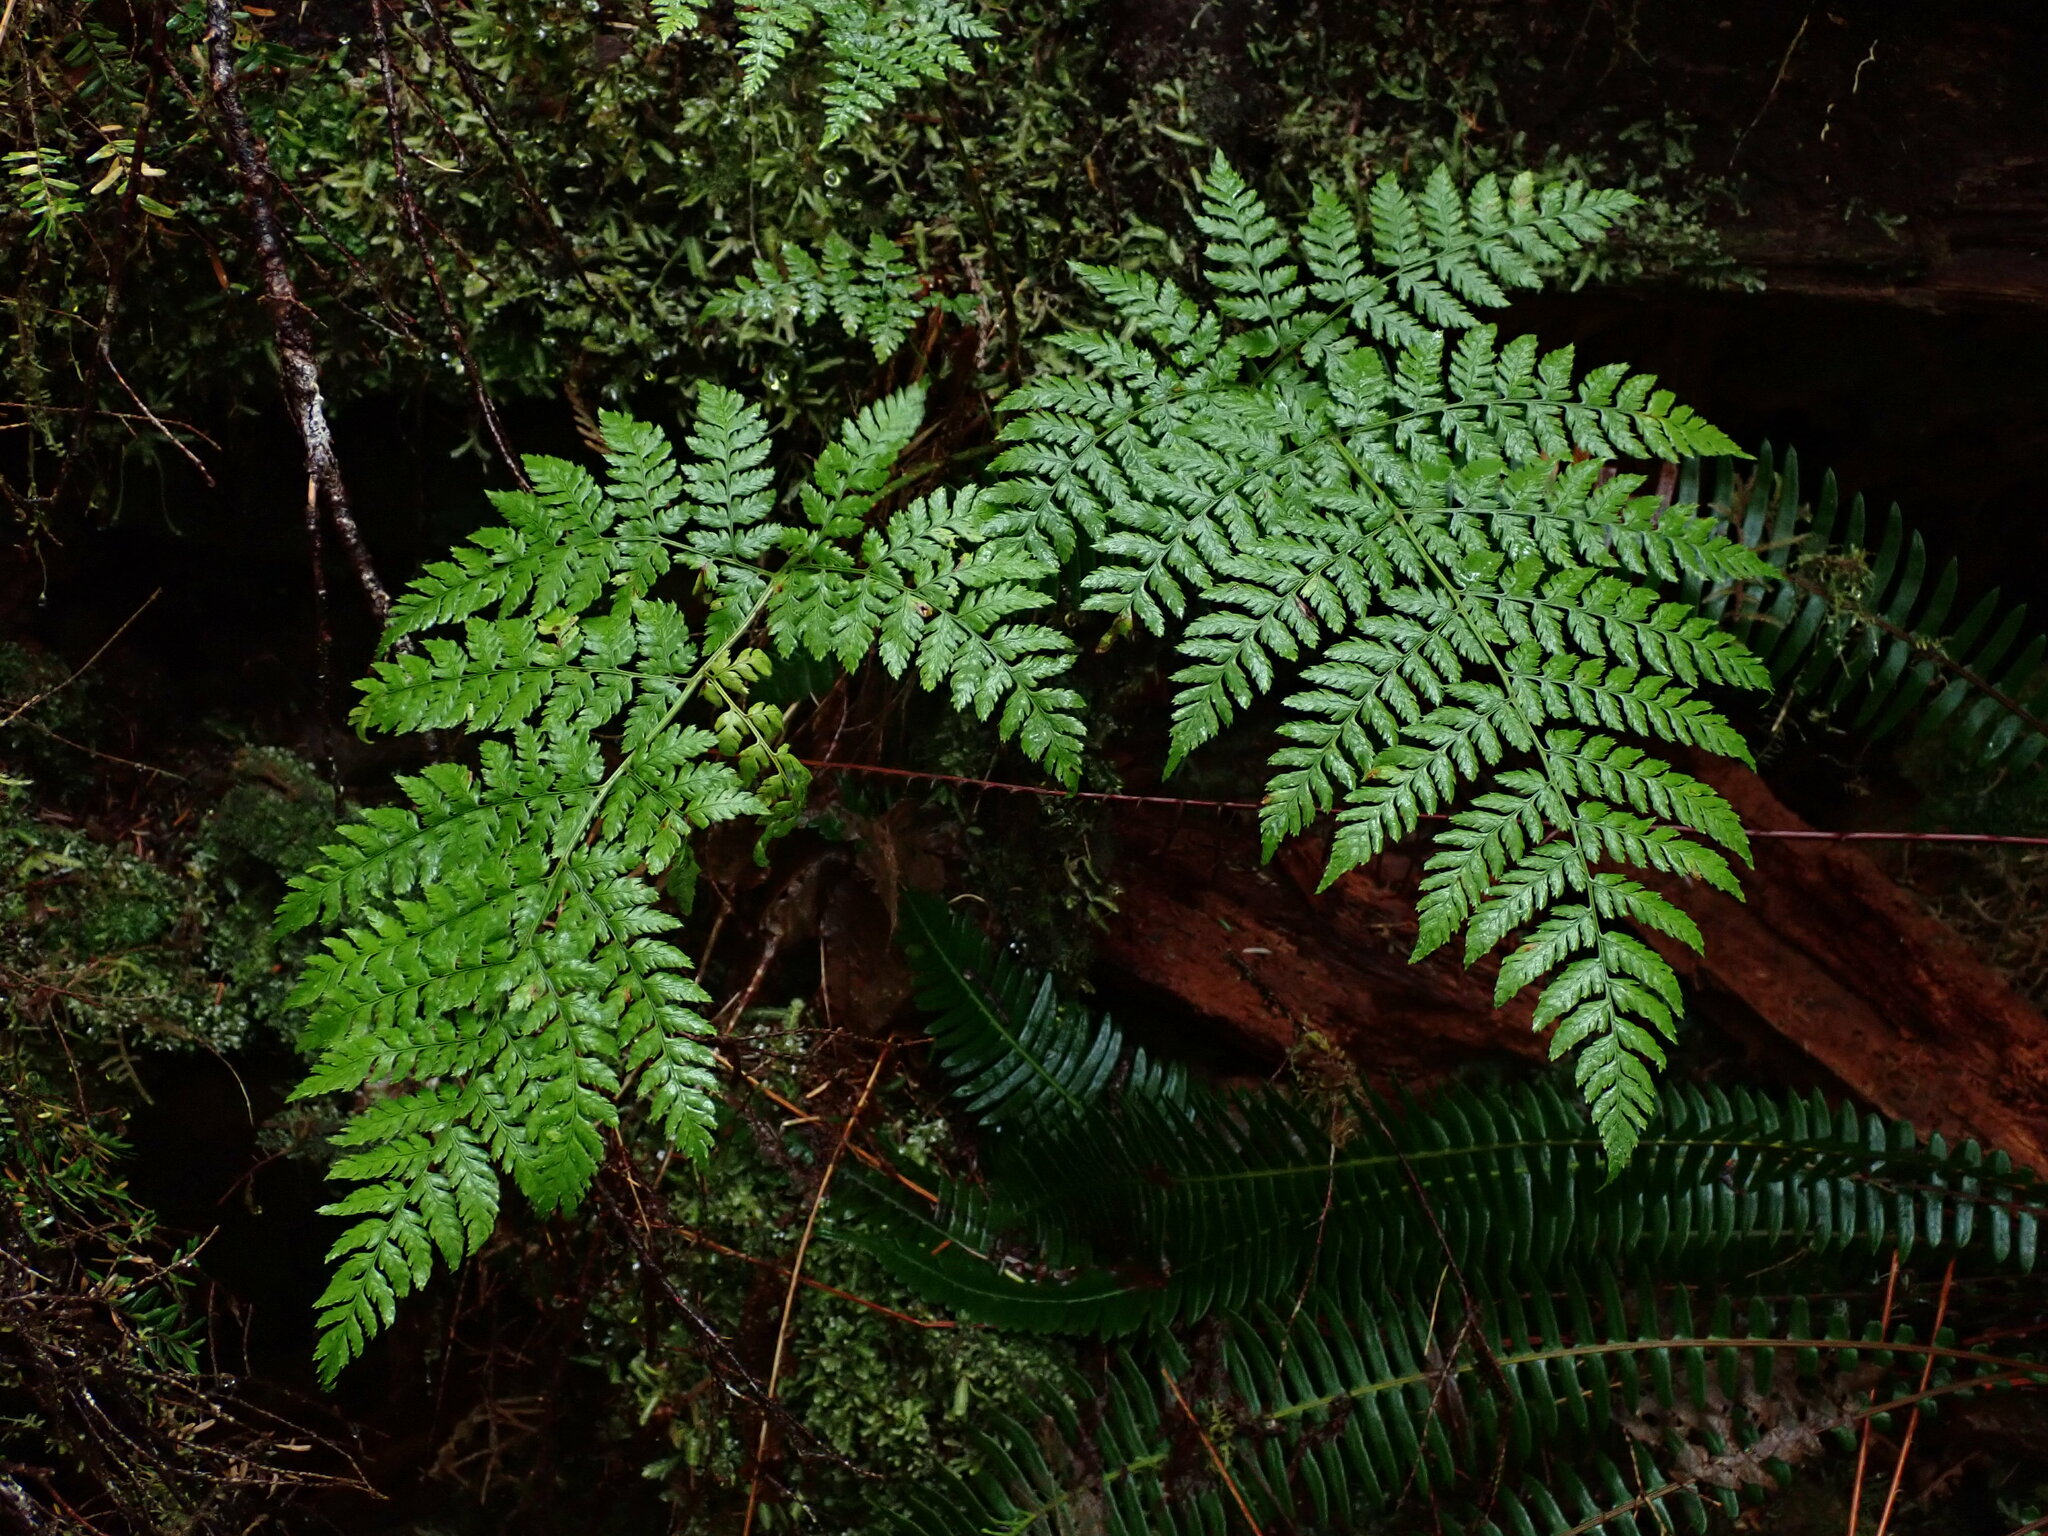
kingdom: Plantae
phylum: Tracheophyta
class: Polypodiopsida
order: Polypodiales
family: Dryopteridaceae
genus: Dryopteris
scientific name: Dryopteris expansa
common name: Northern buckler fern
